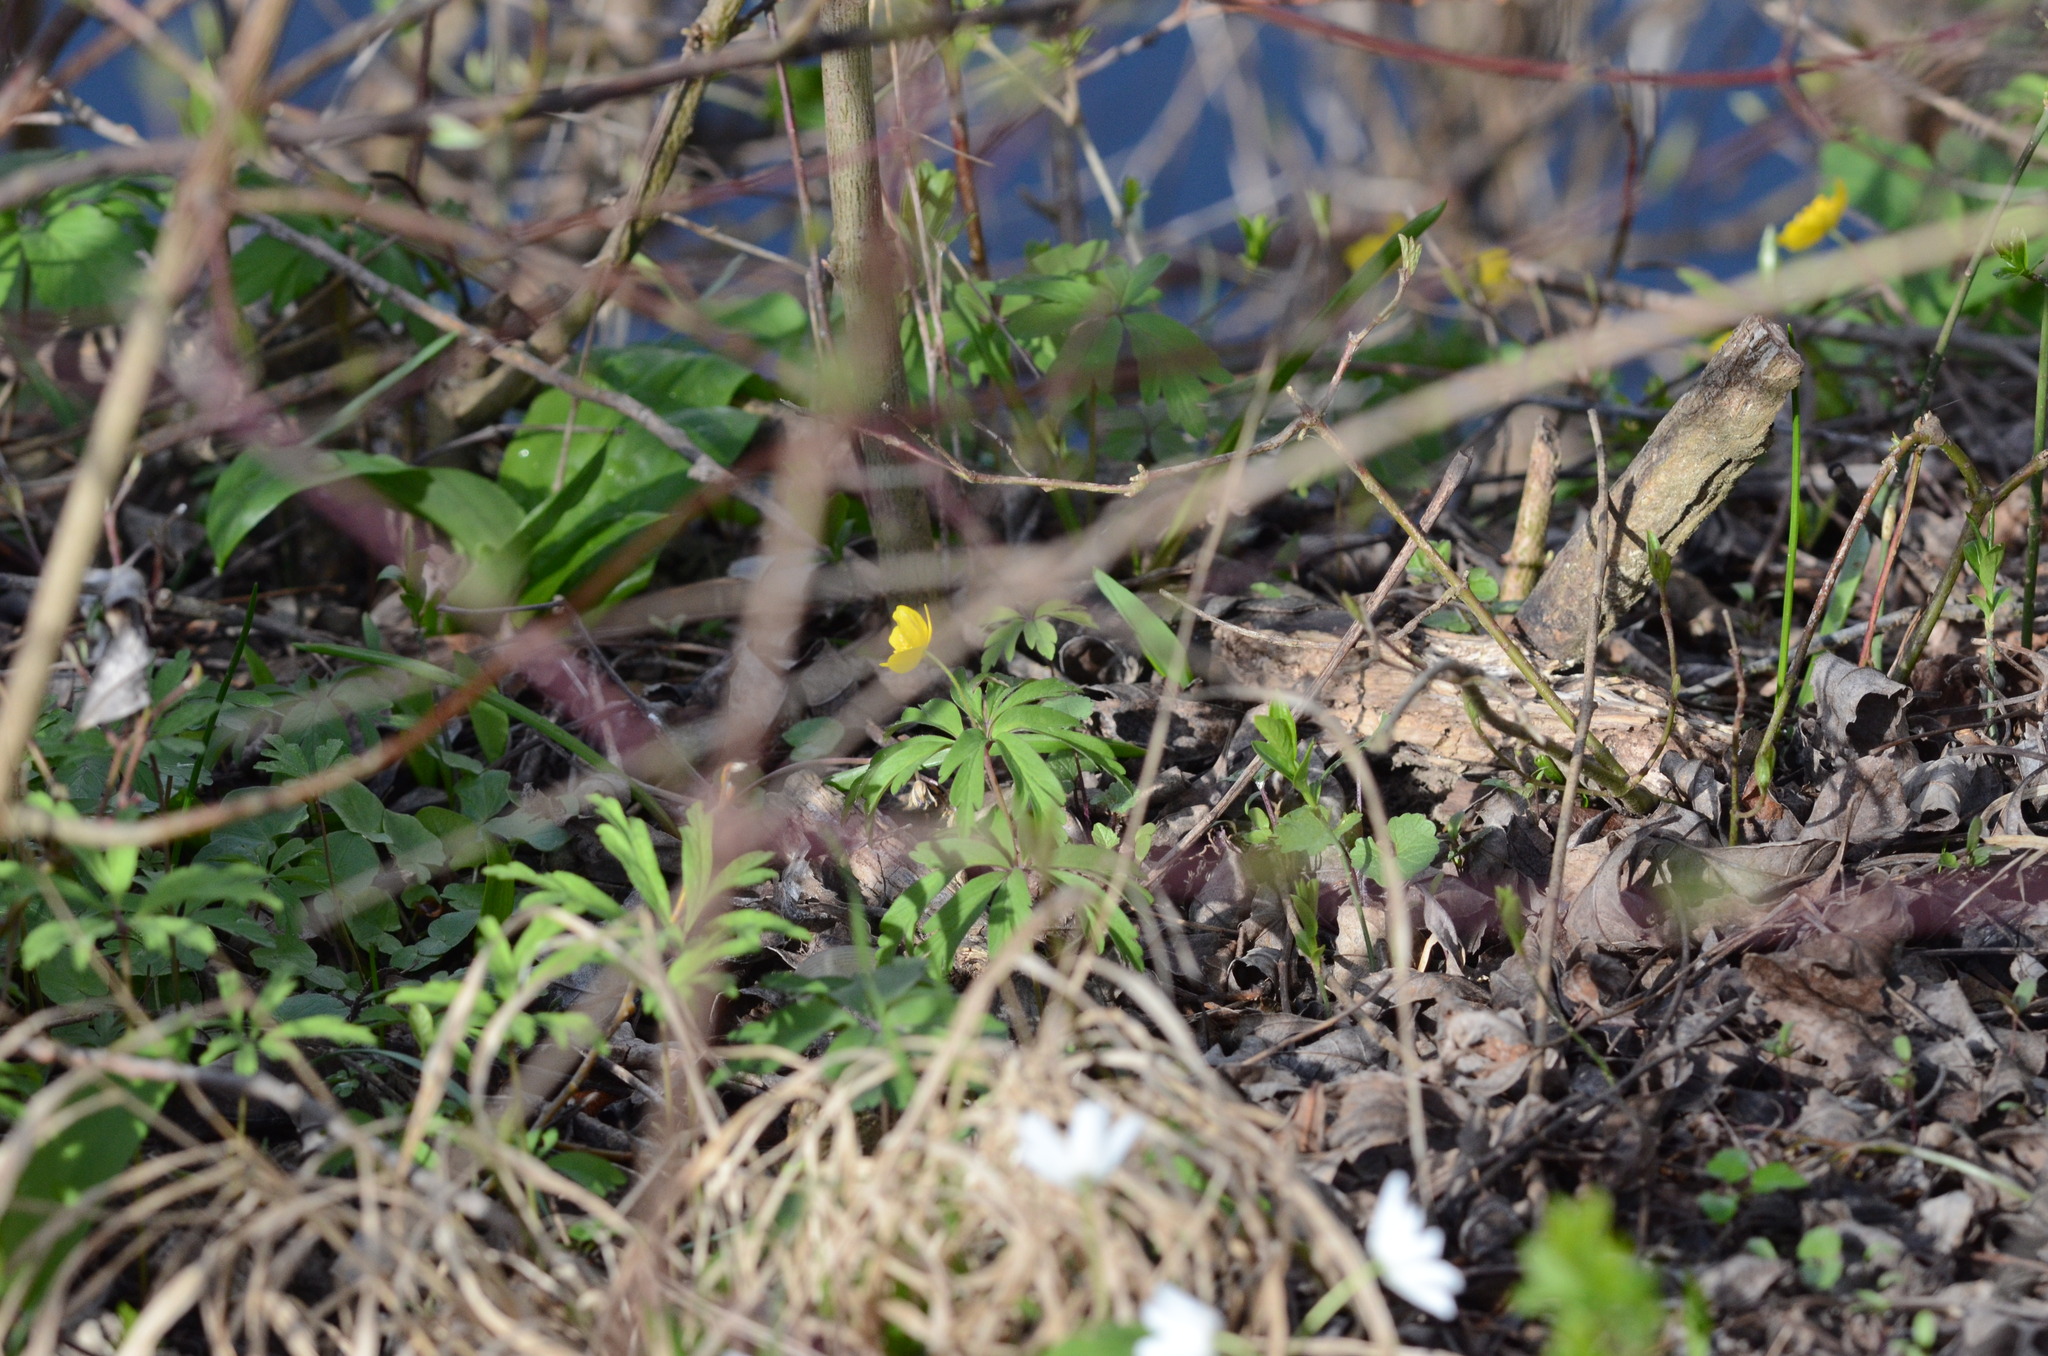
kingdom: Plantae
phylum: Tracheophyta
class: Magnoliopsida
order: Ranunculales
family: Ranunculaceae
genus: Anemone
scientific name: Anemone ranunculoides
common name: Yellow anemone
